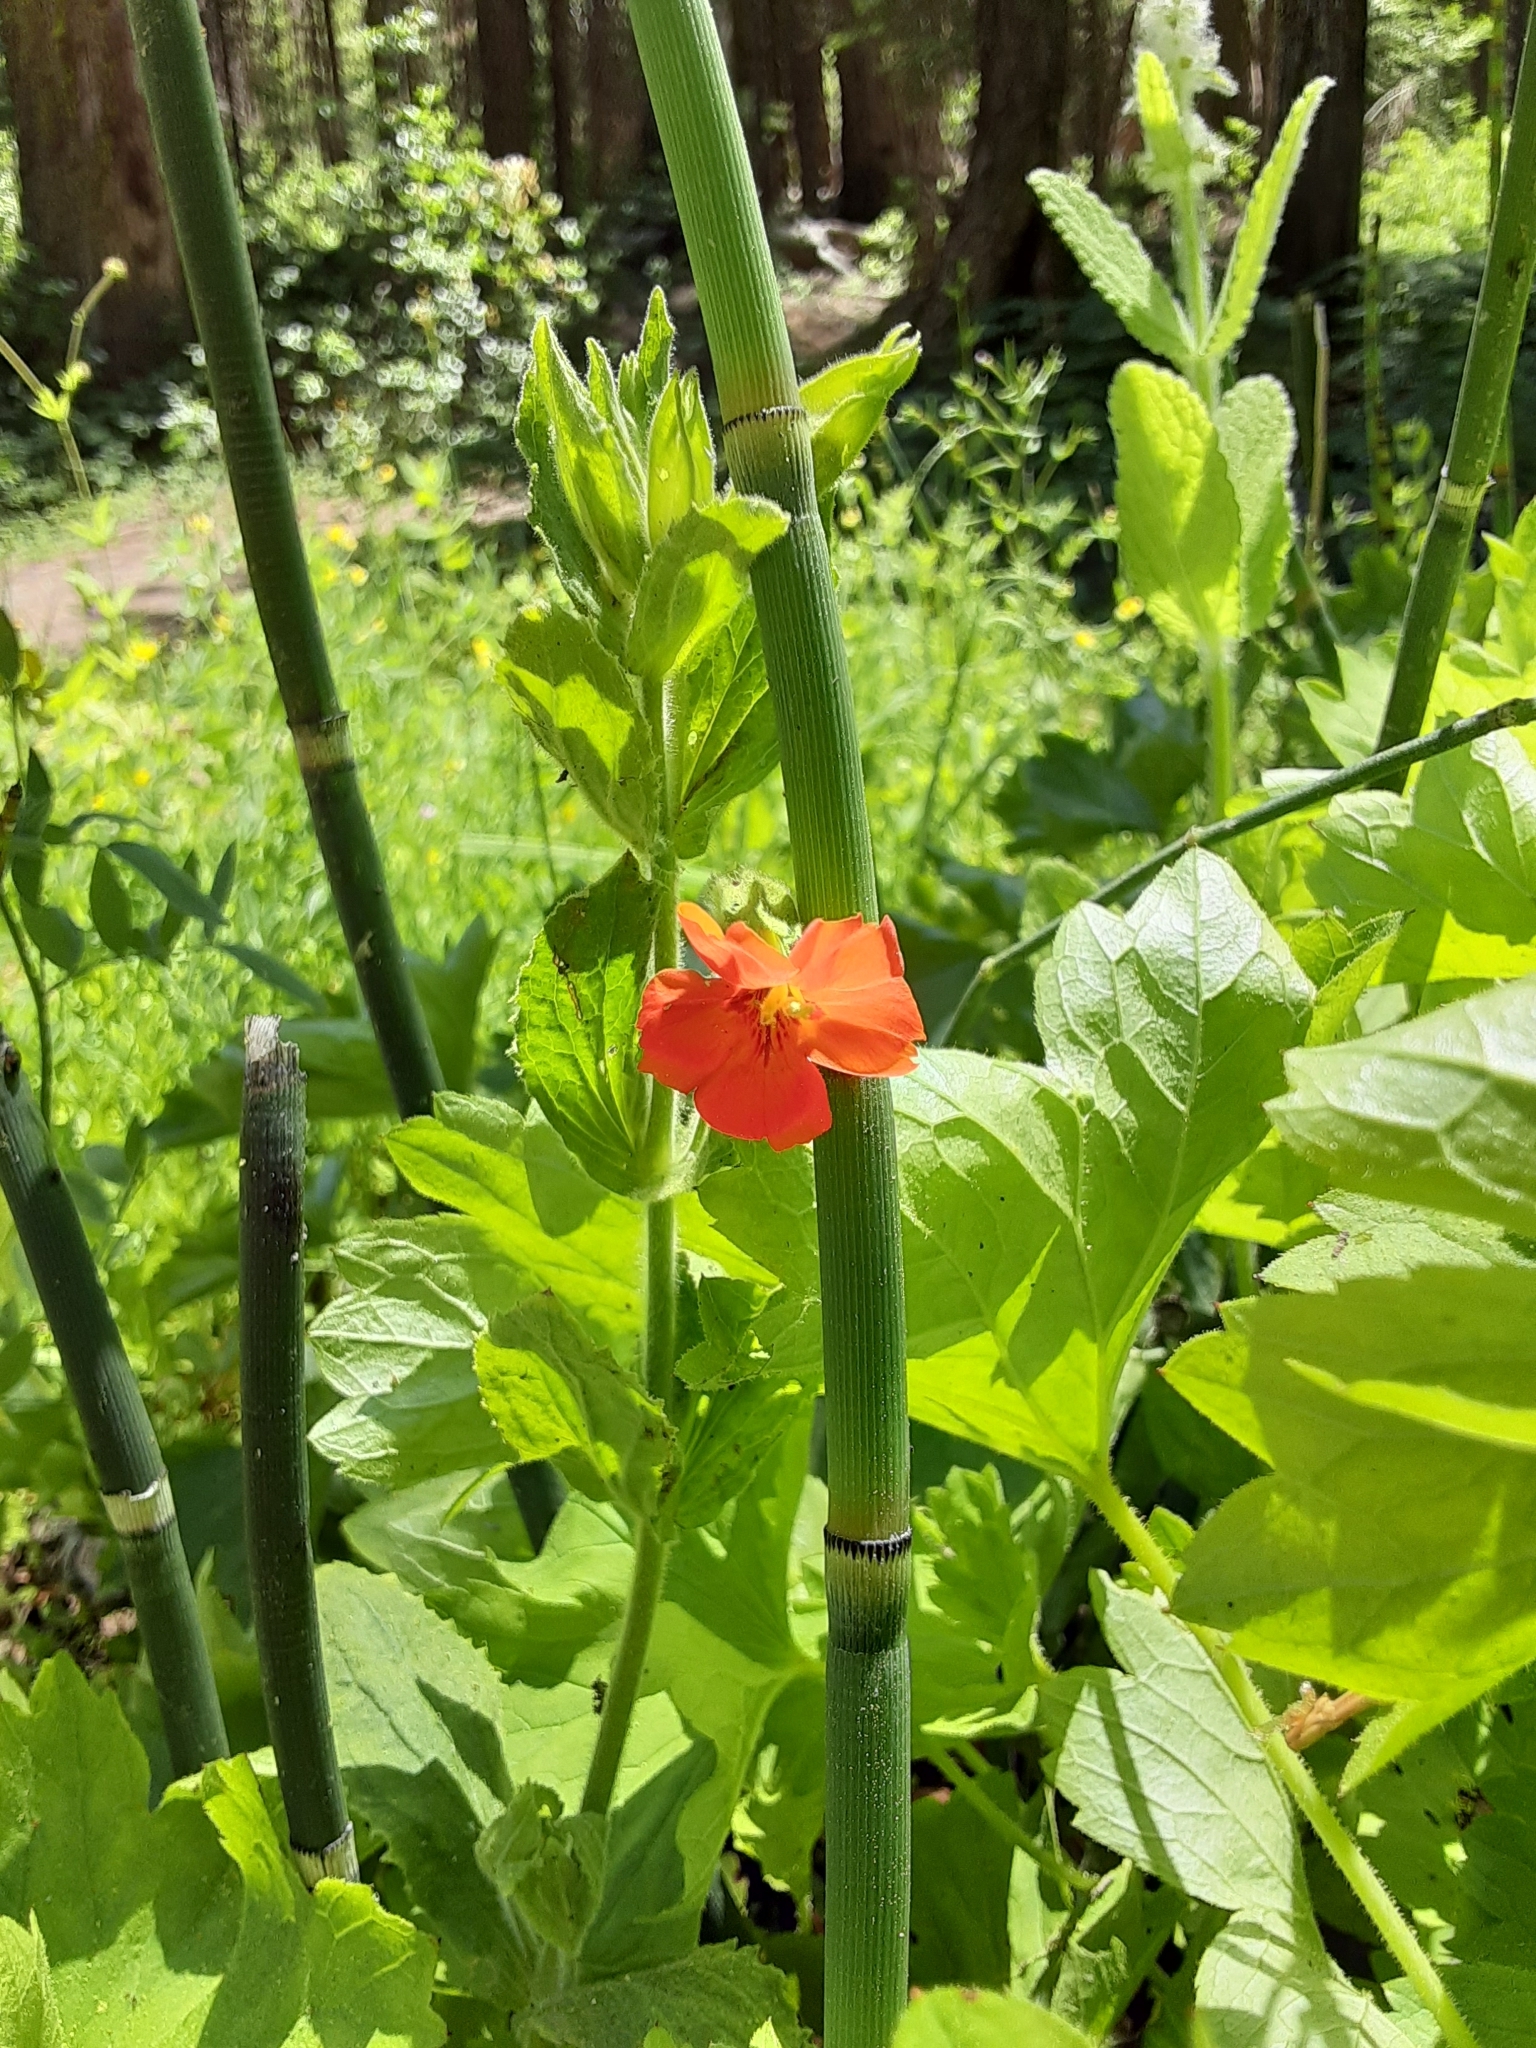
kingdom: Plantae
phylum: Tracheophyta
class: Magnoliopsida
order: Lamiales
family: Phrymaceae
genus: Erythranthe
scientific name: Erythranthe cardinalis
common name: Scarlet monkey-flower
